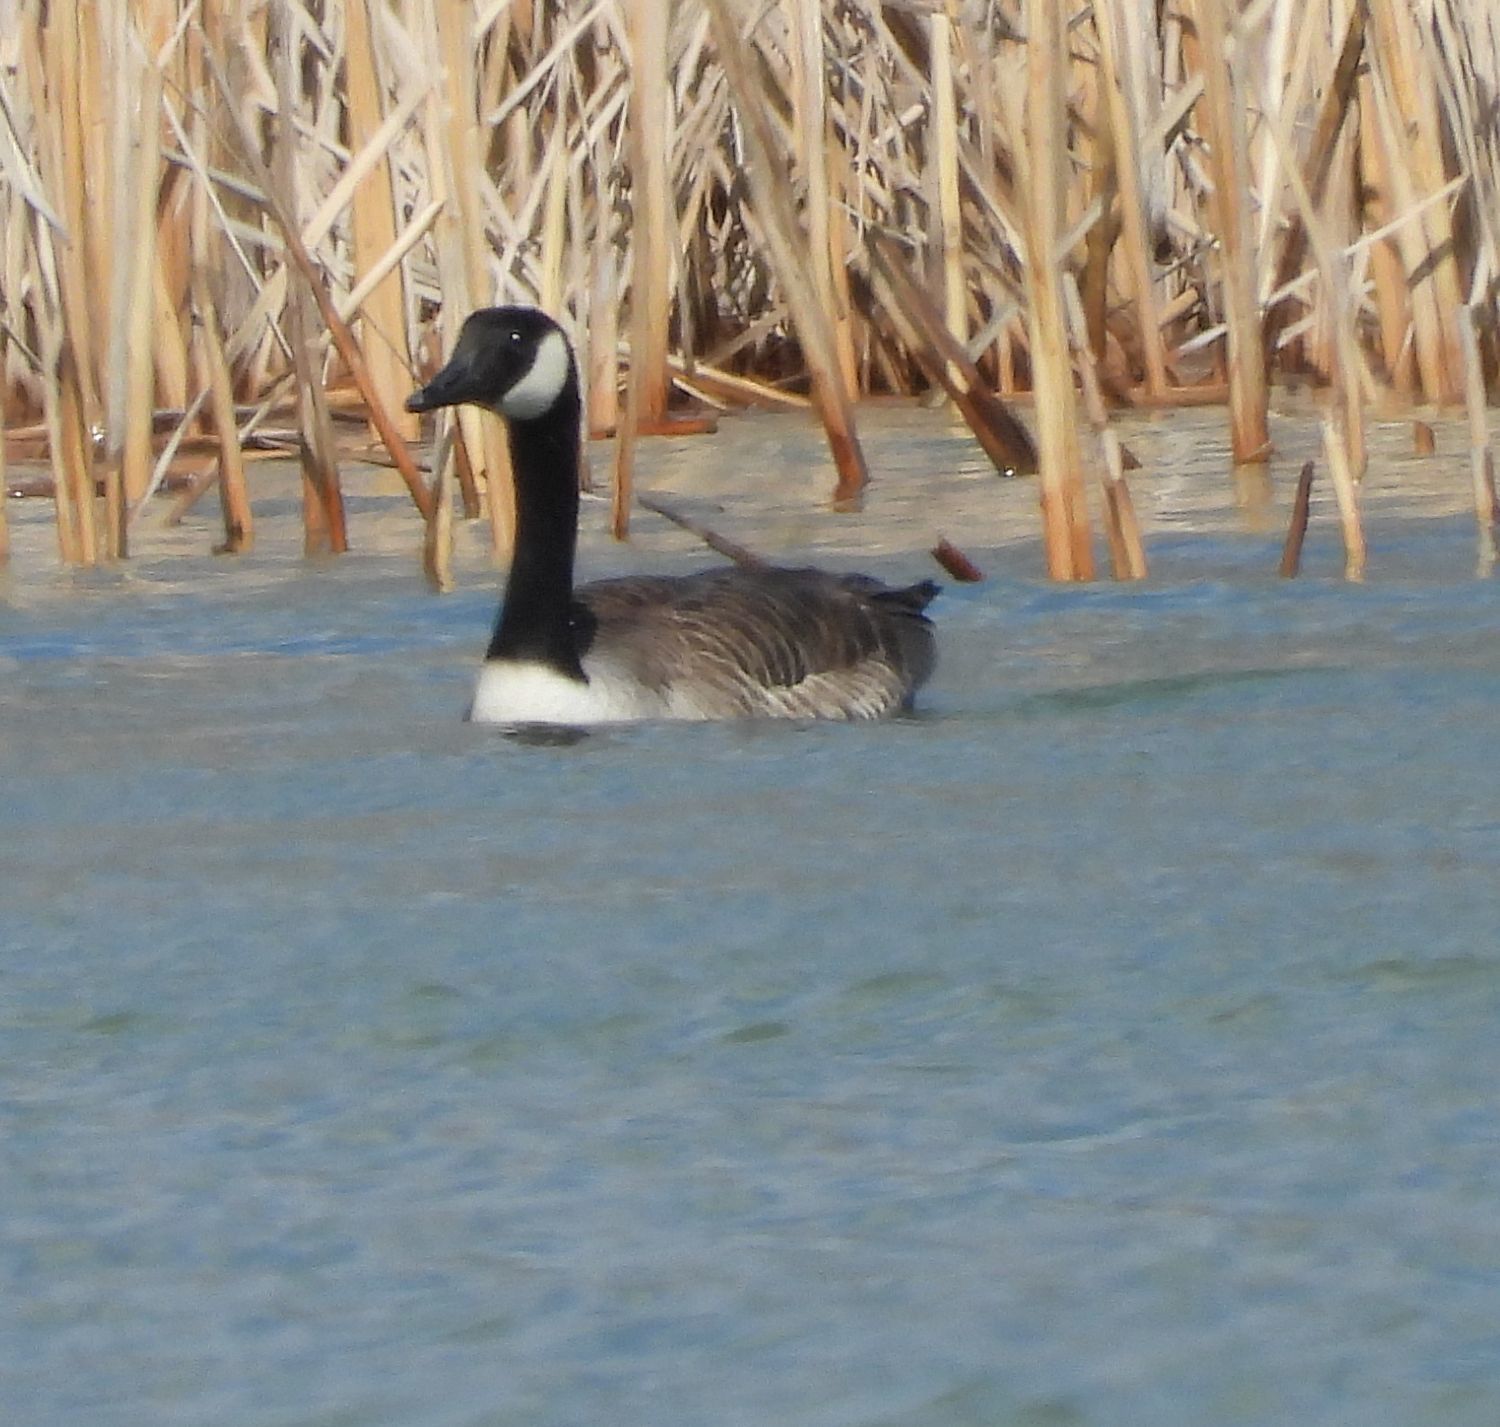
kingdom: Animalia
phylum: Chordata
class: Aves
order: Anseriformes
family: Anatidae
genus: Branta
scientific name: Branta canadensis
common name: Canada goose
